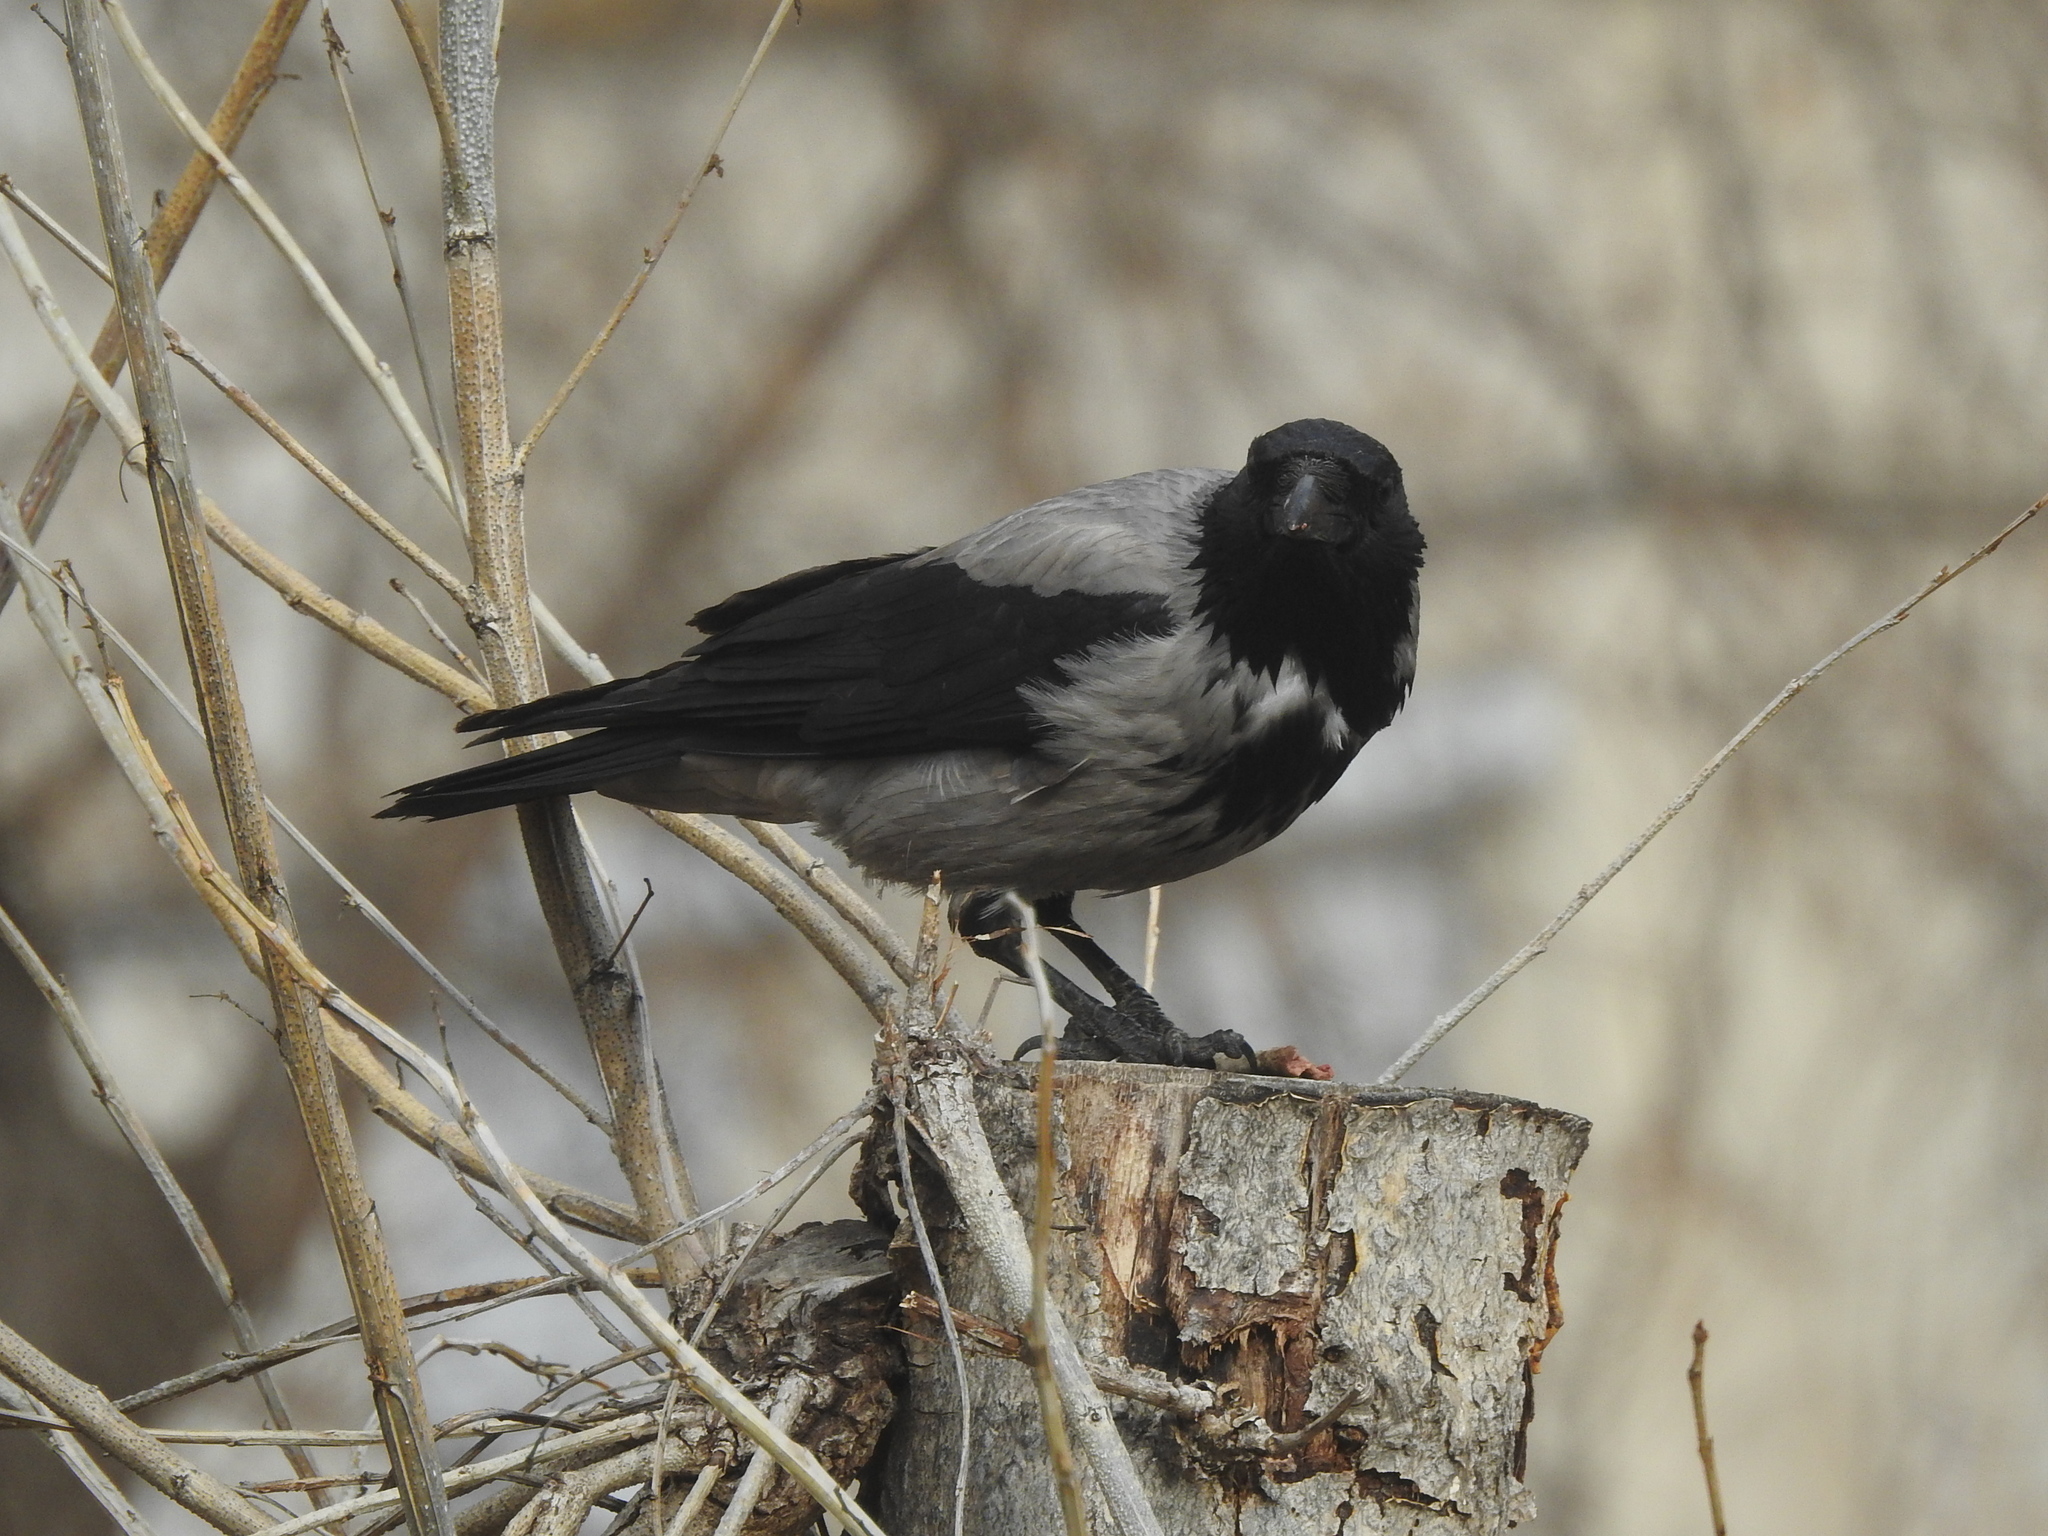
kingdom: Animalia
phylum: Chordata
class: Aves
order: Passeriformes
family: Corvidae
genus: Corvus
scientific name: Corvus cornix
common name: Hooded crow
